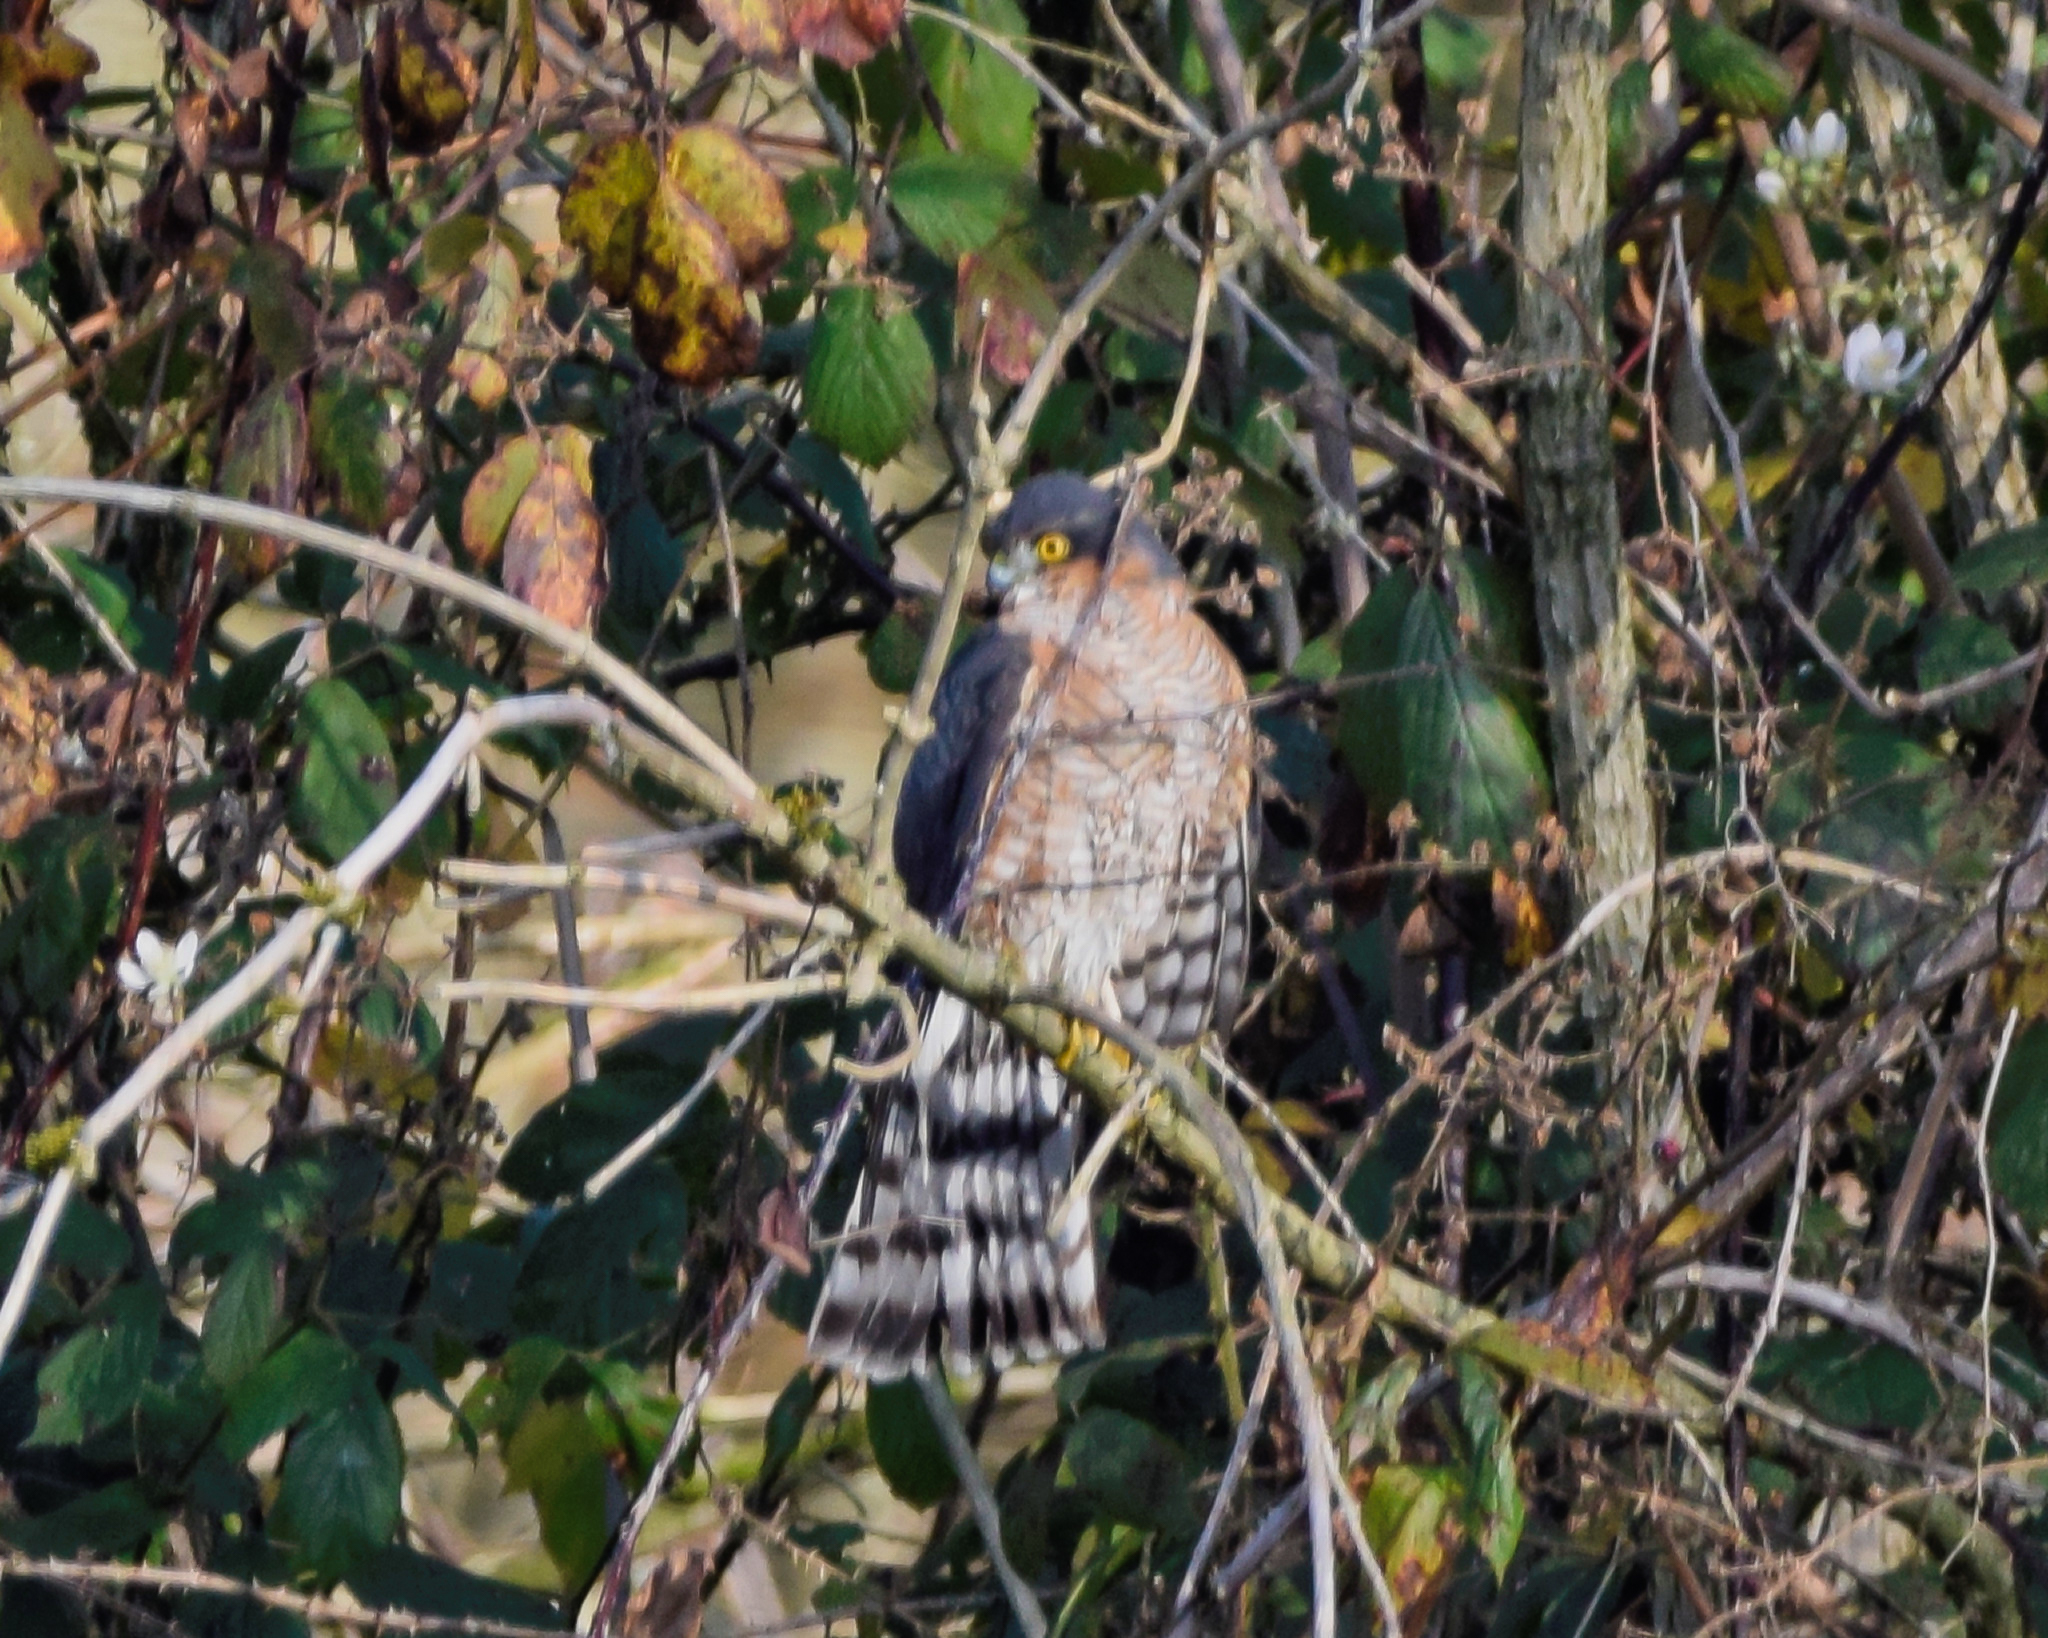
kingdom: Animalia
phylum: Chordata
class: Aves
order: Accipitriformes
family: Accipitridae
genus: Accipiter
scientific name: Accipiter nisus
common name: Eurasian sparrowhawk
